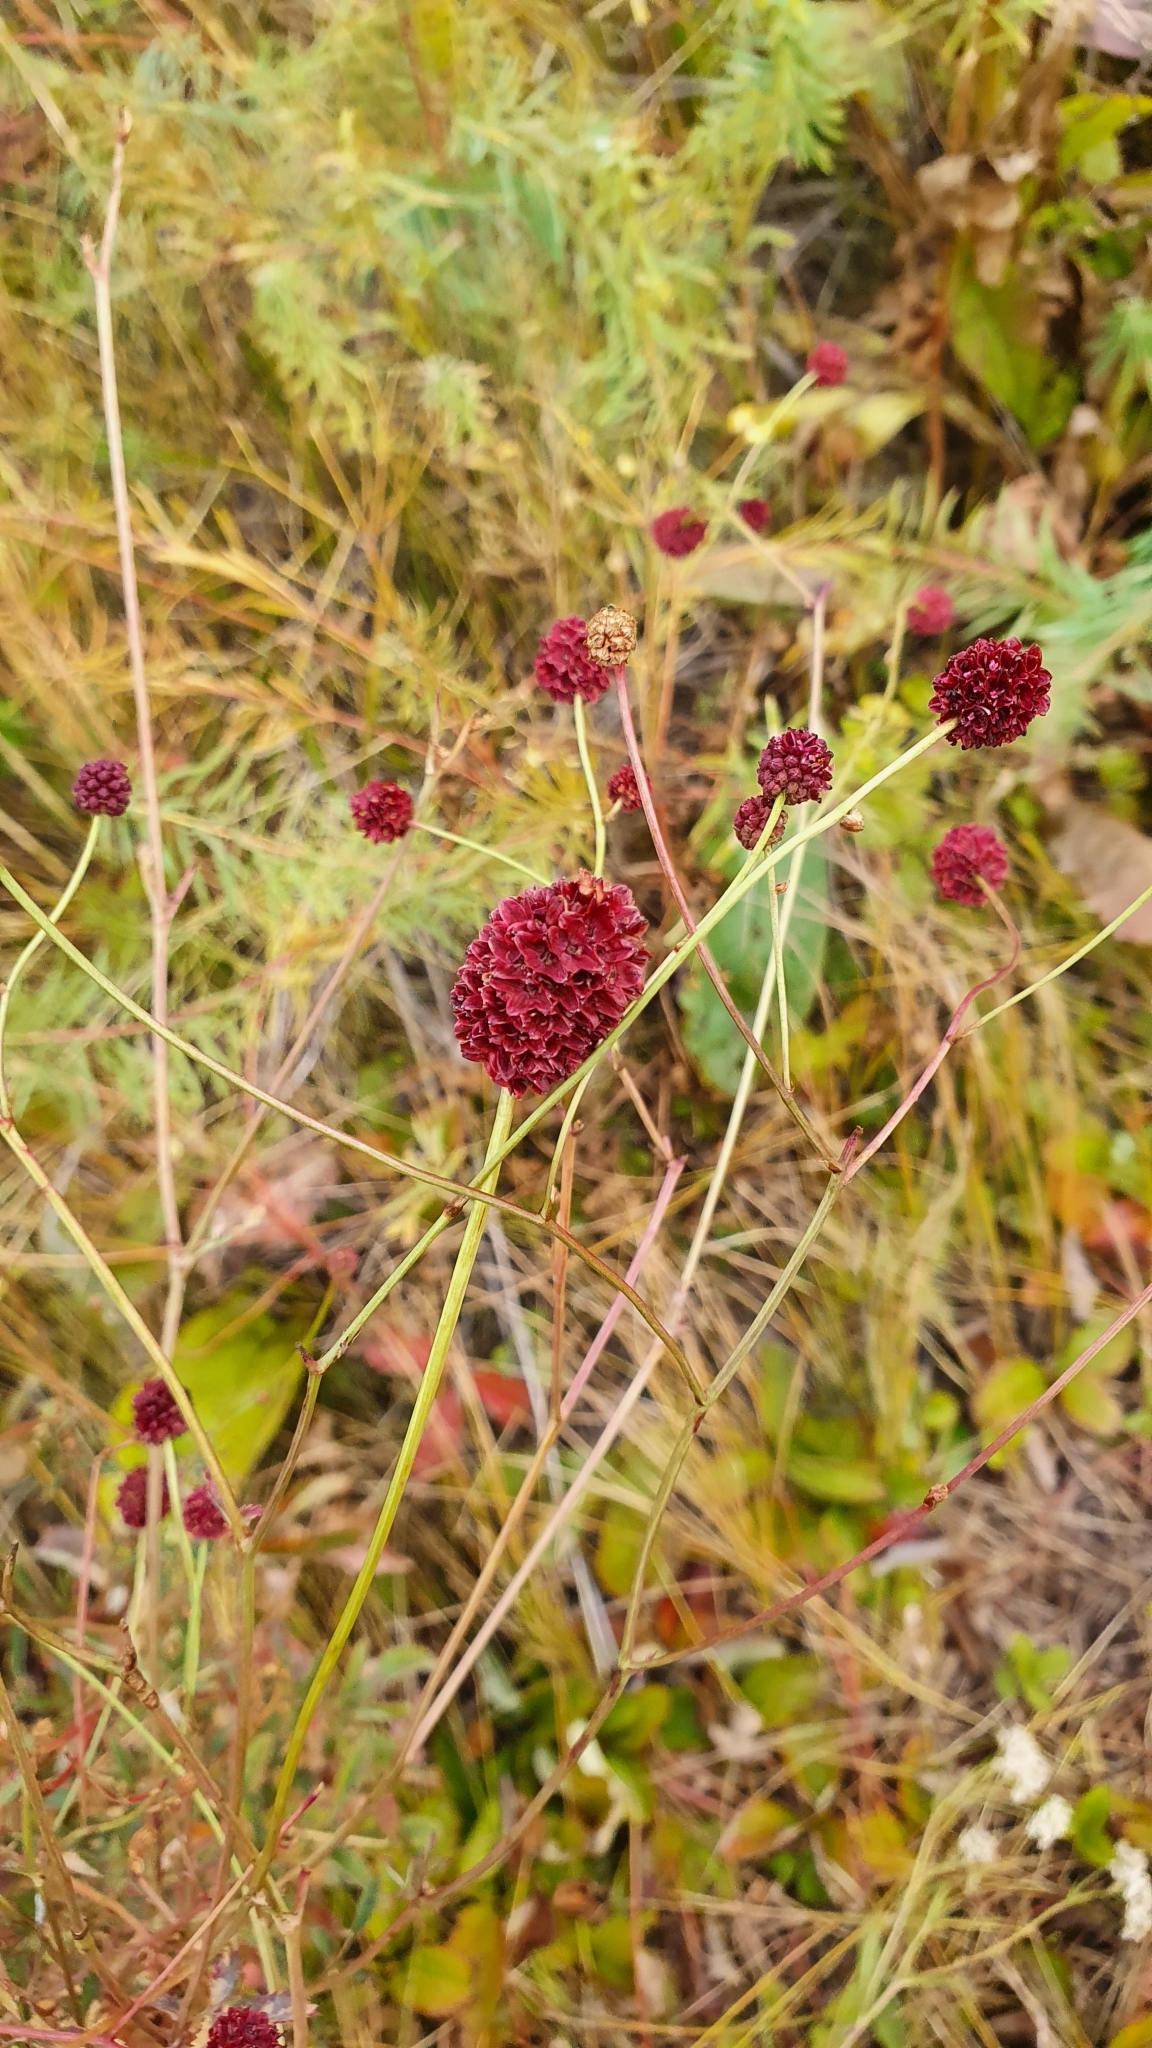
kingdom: Plantae
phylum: Tracheophyta
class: Magnoliopsida
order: Rosales
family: Rosaceae
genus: Sanguisorba
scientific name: Sanguisorba officinalis
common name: Great burnet
